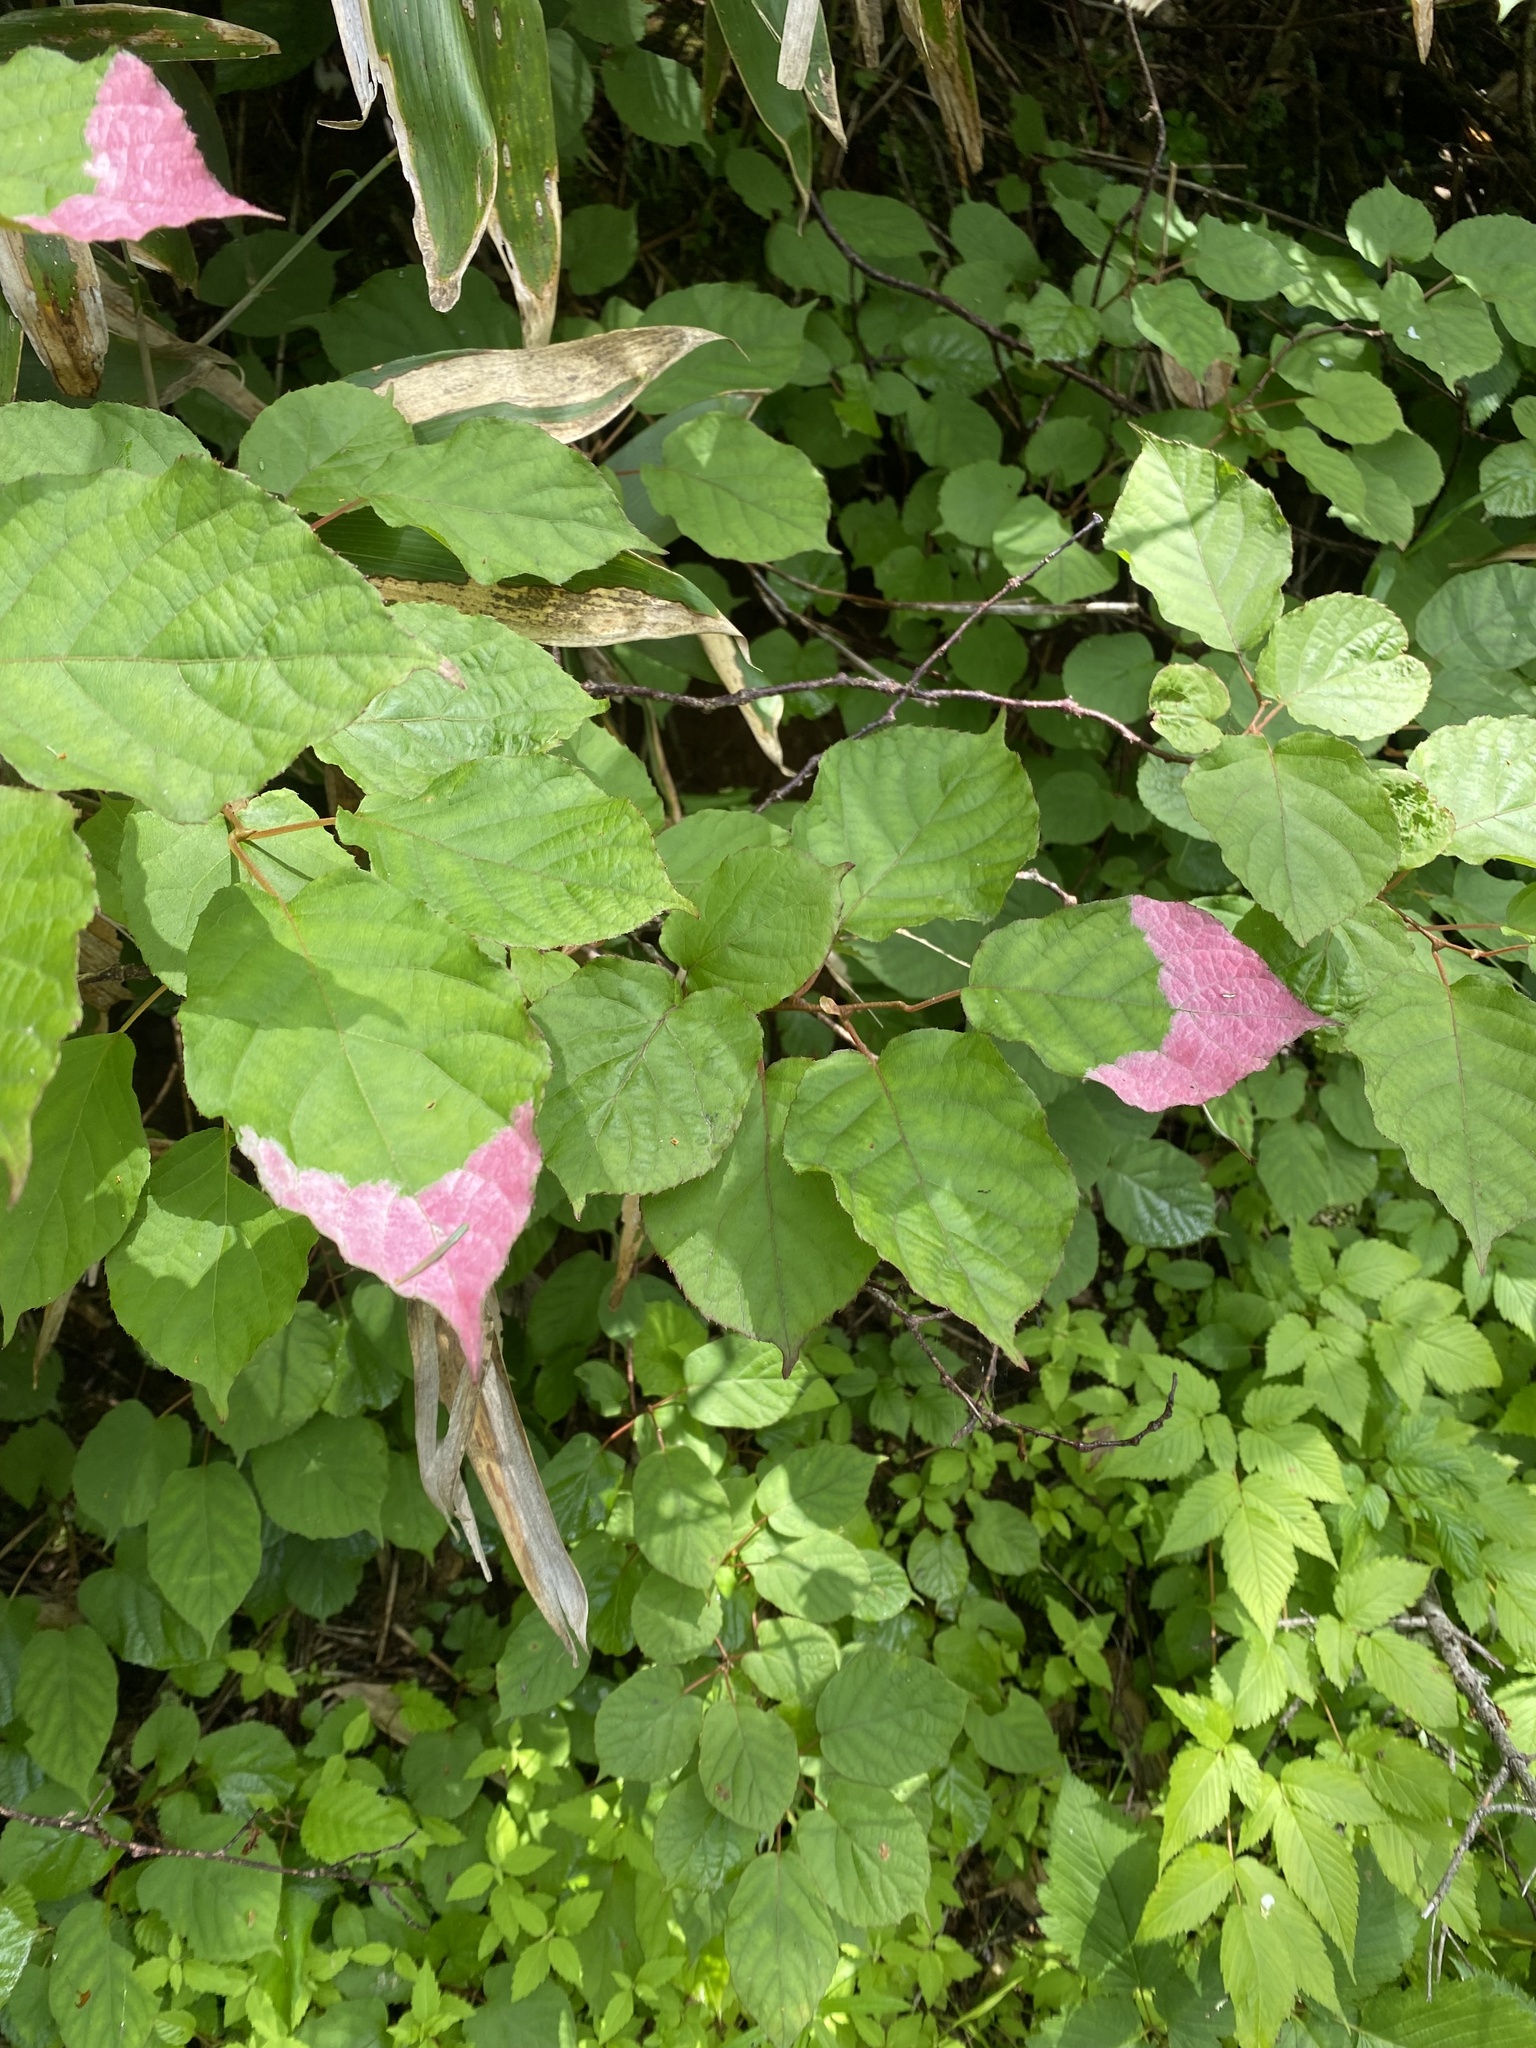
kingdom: Plantae
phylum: Tracheophyta
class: Magnoliopsida
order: Ericales
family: Actinidiaceae
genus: Actinidia
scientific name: Actinidia kolomikta
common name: Arctic beauty kiwi
